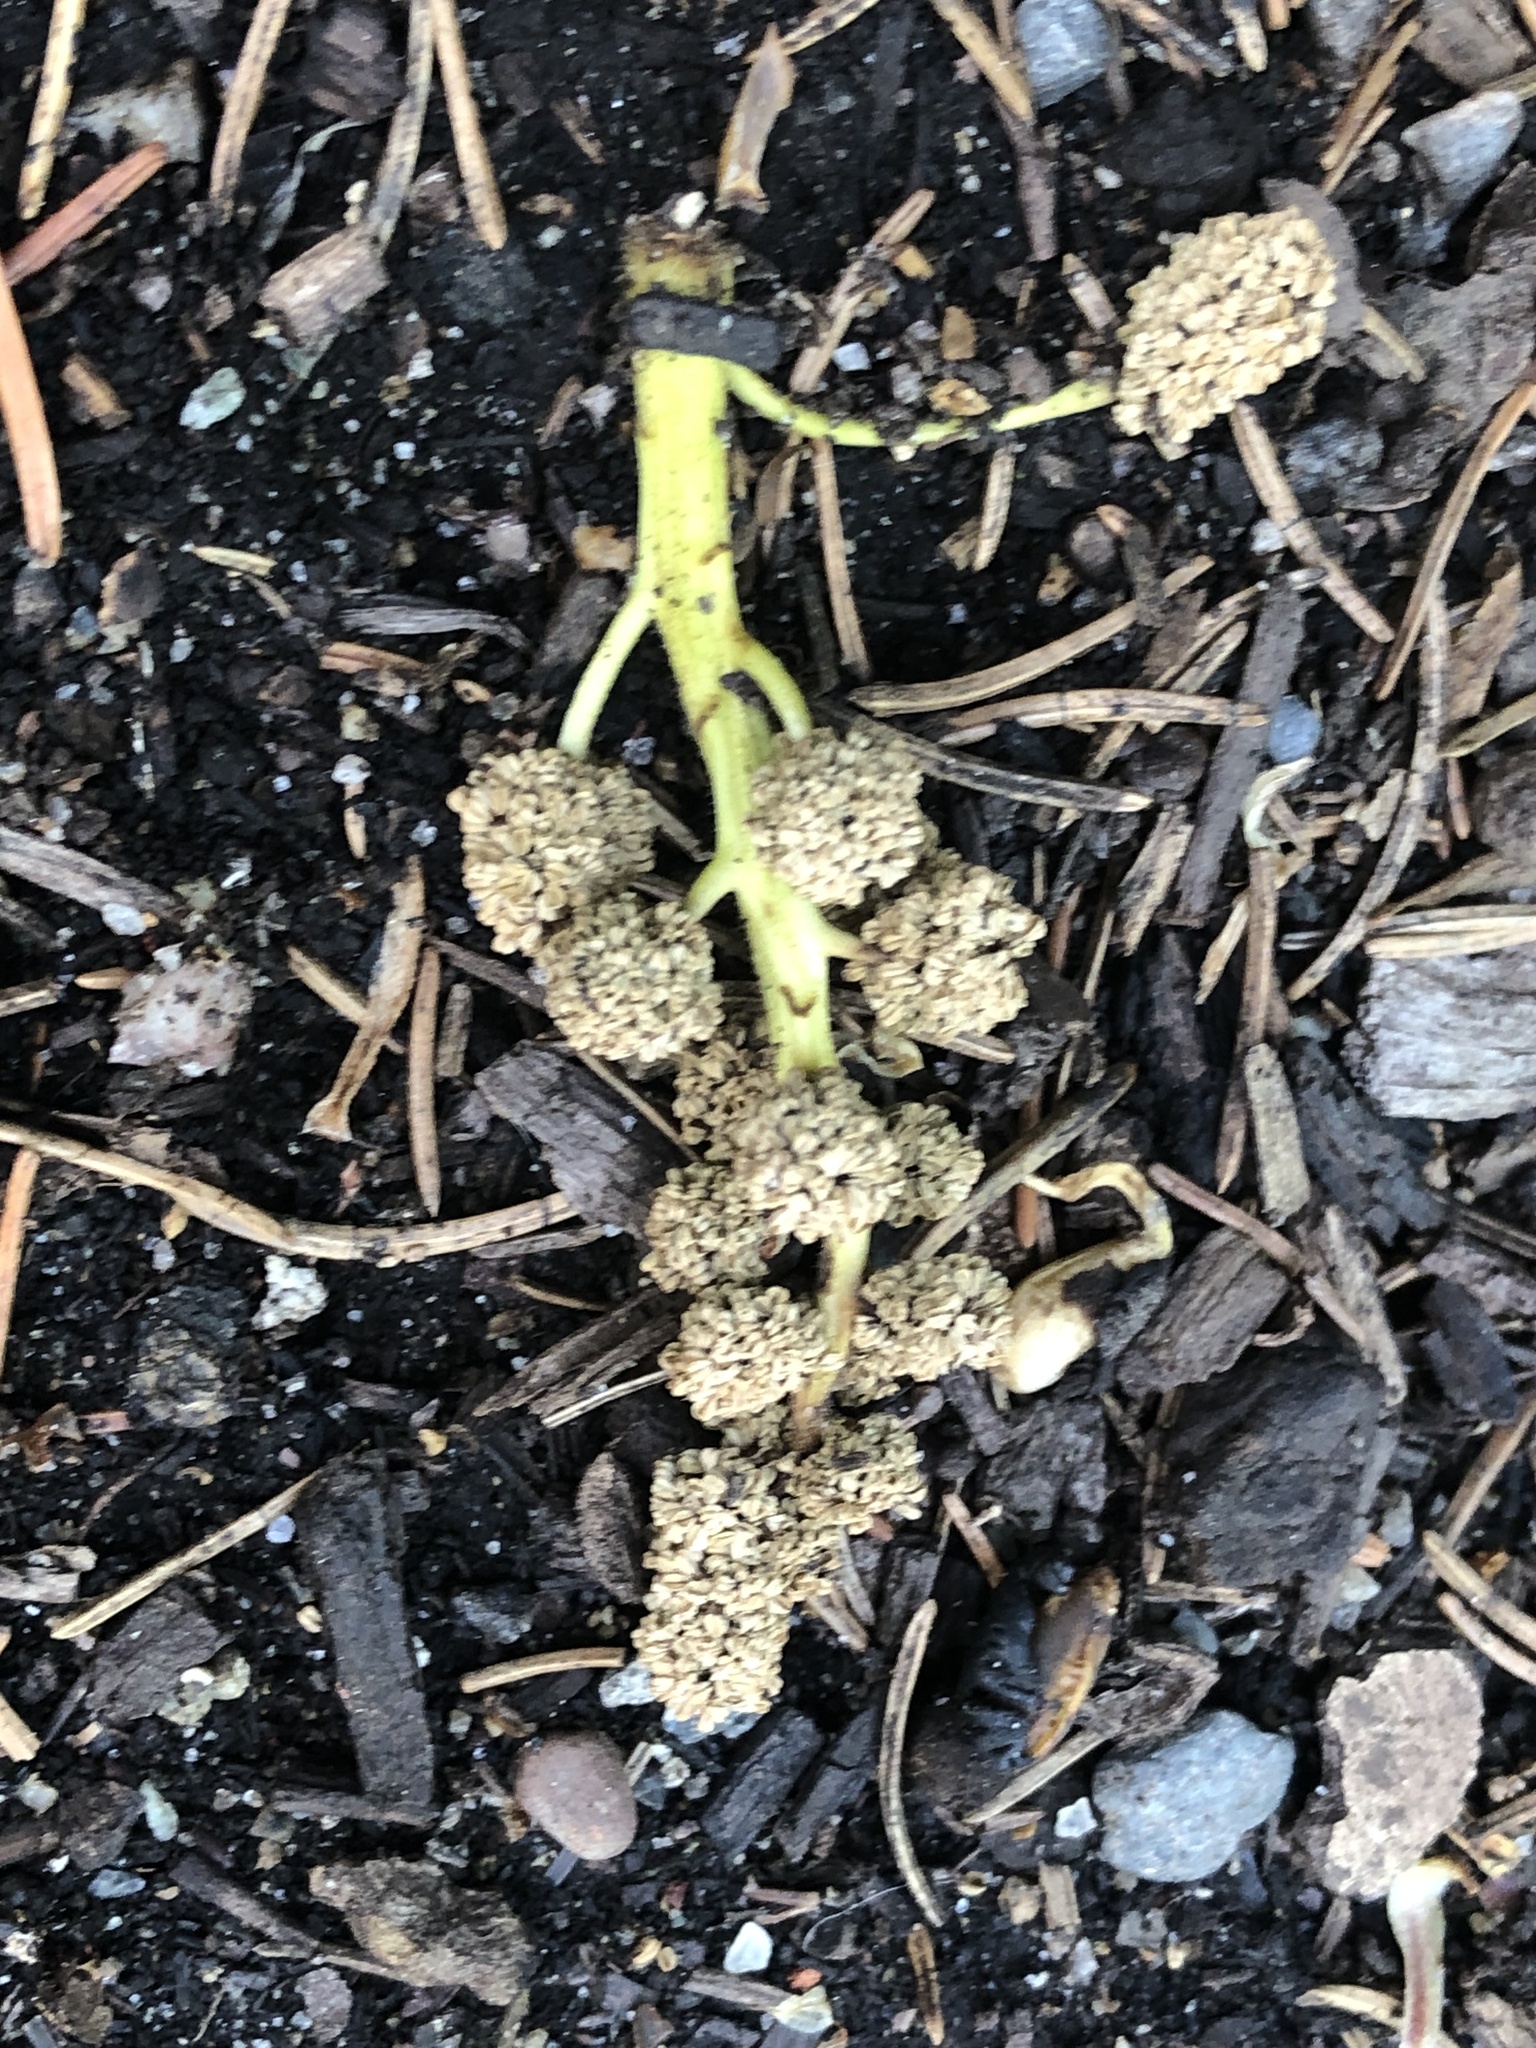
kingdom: Plantae
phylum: Tracheophyta
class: Magnoliopsida
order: Saxifragales
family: Altingiaceae
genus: Liquidambar
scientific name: Liquidambar styraciflua
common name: Sweet gum
